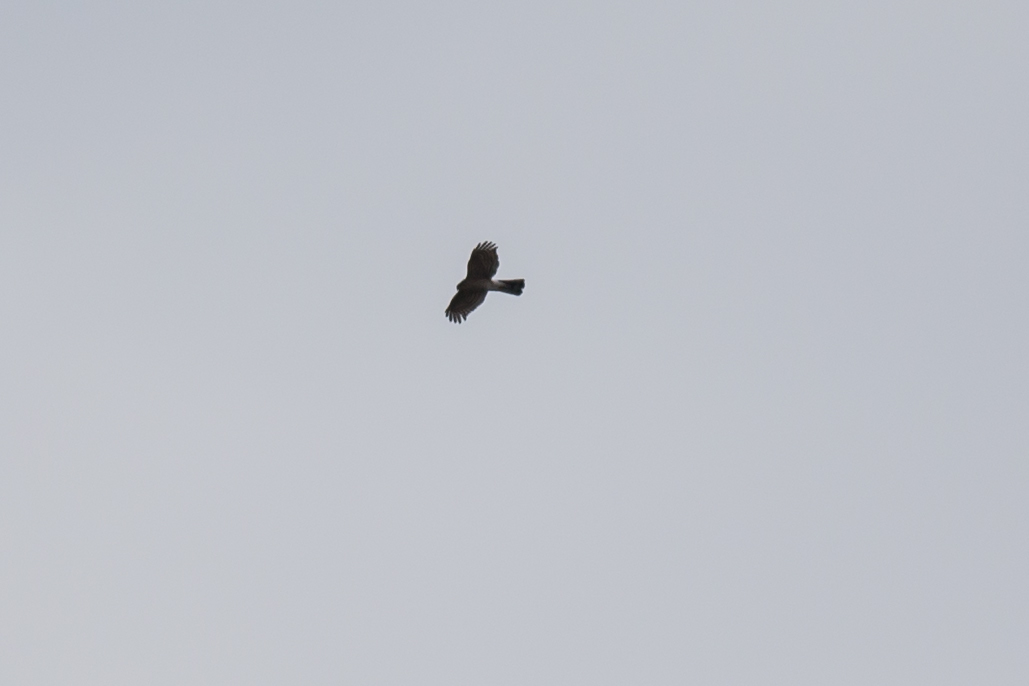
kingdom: Animalia
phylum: Chordata
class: Aves
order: Accipitriformes
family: Accipitridae
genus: Accipiter
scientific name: Accipiter striatus
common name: Sharp-shinned hawk
